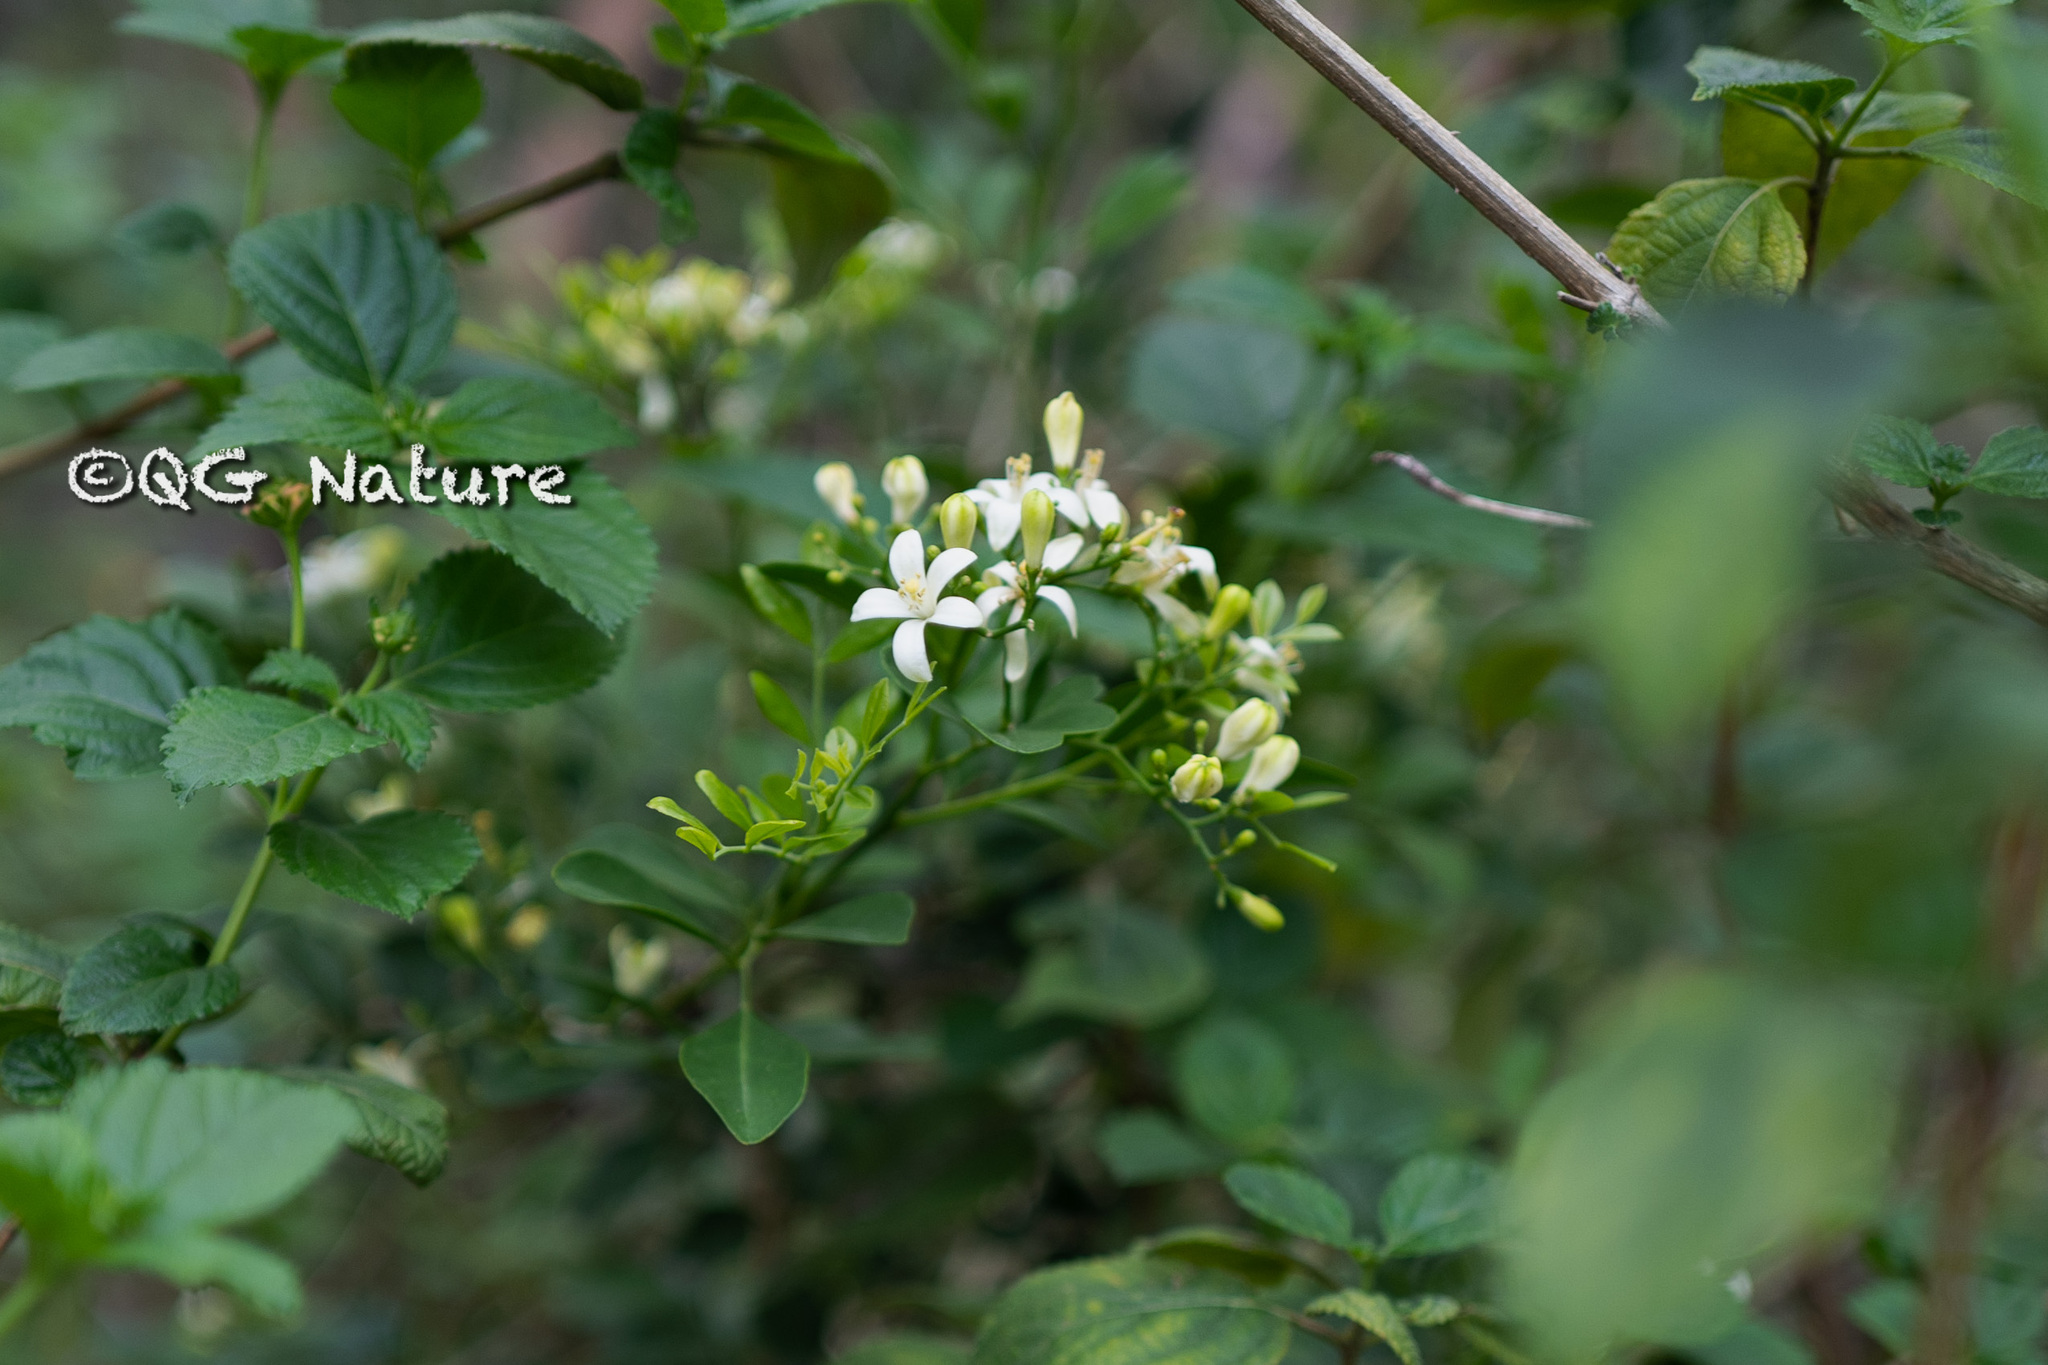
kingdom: Plantae
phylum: Tracheophyta
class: Magnoliopsida
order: Sapindales
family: Rutaceae
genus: Murraya
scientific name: Murraya paniculata
